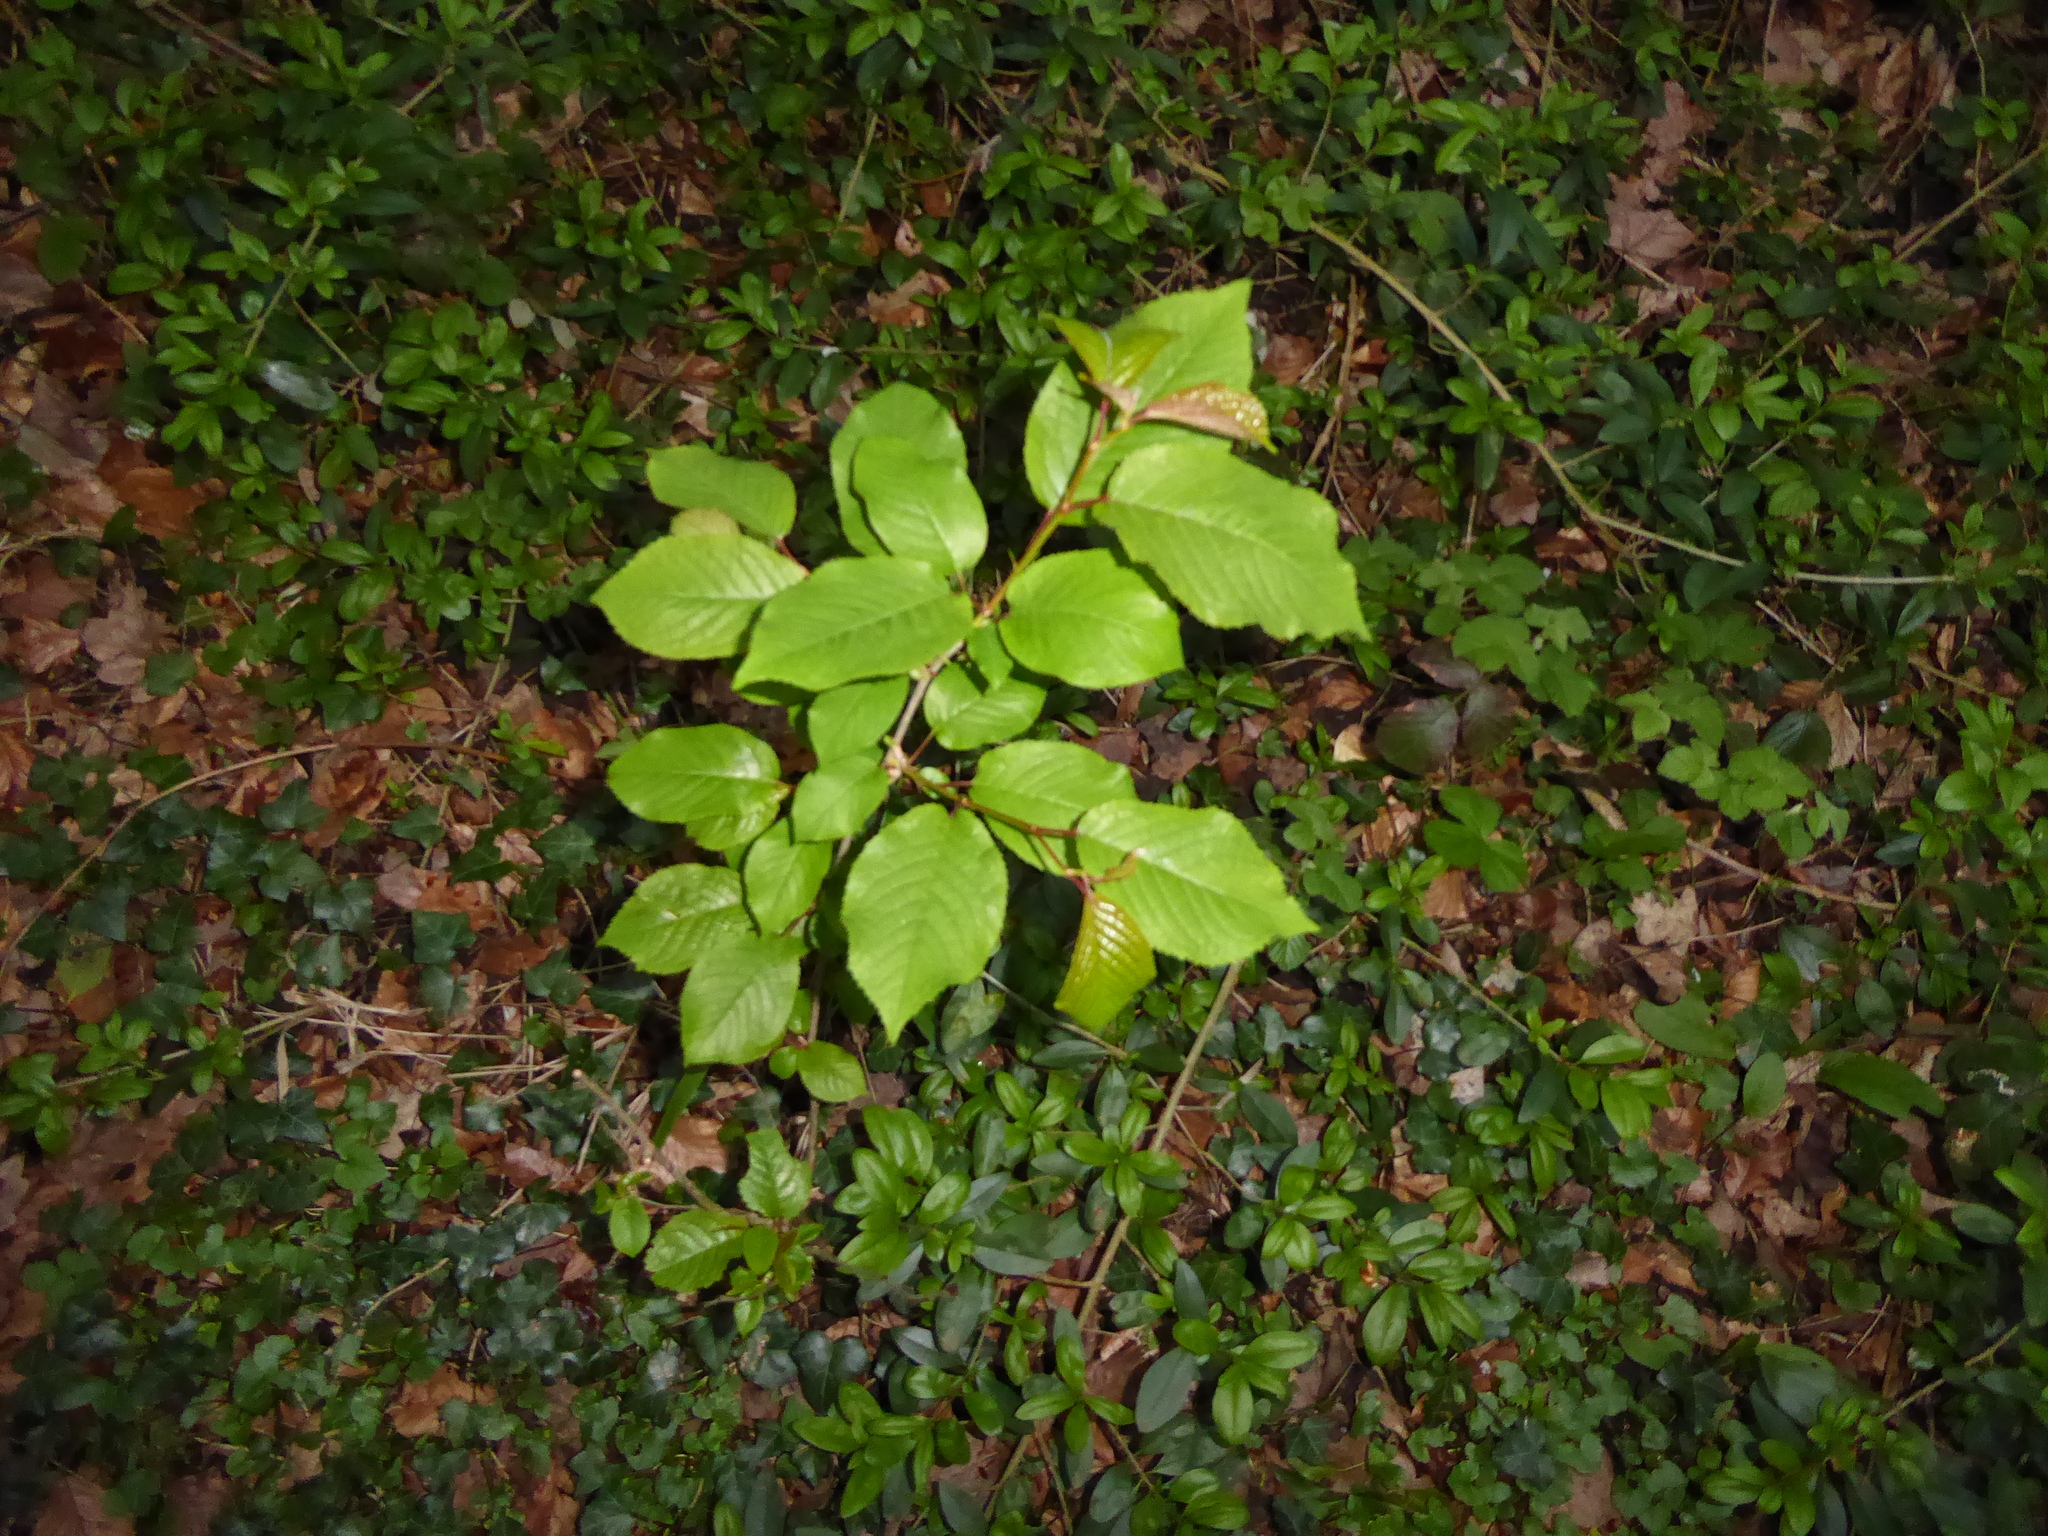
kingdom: Plantae
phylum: Tracheophyta
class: Magnoliopsida
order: Rosales
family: Rosaceae
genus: Prunus
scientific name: Prunus avium
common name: Sweet cherry
